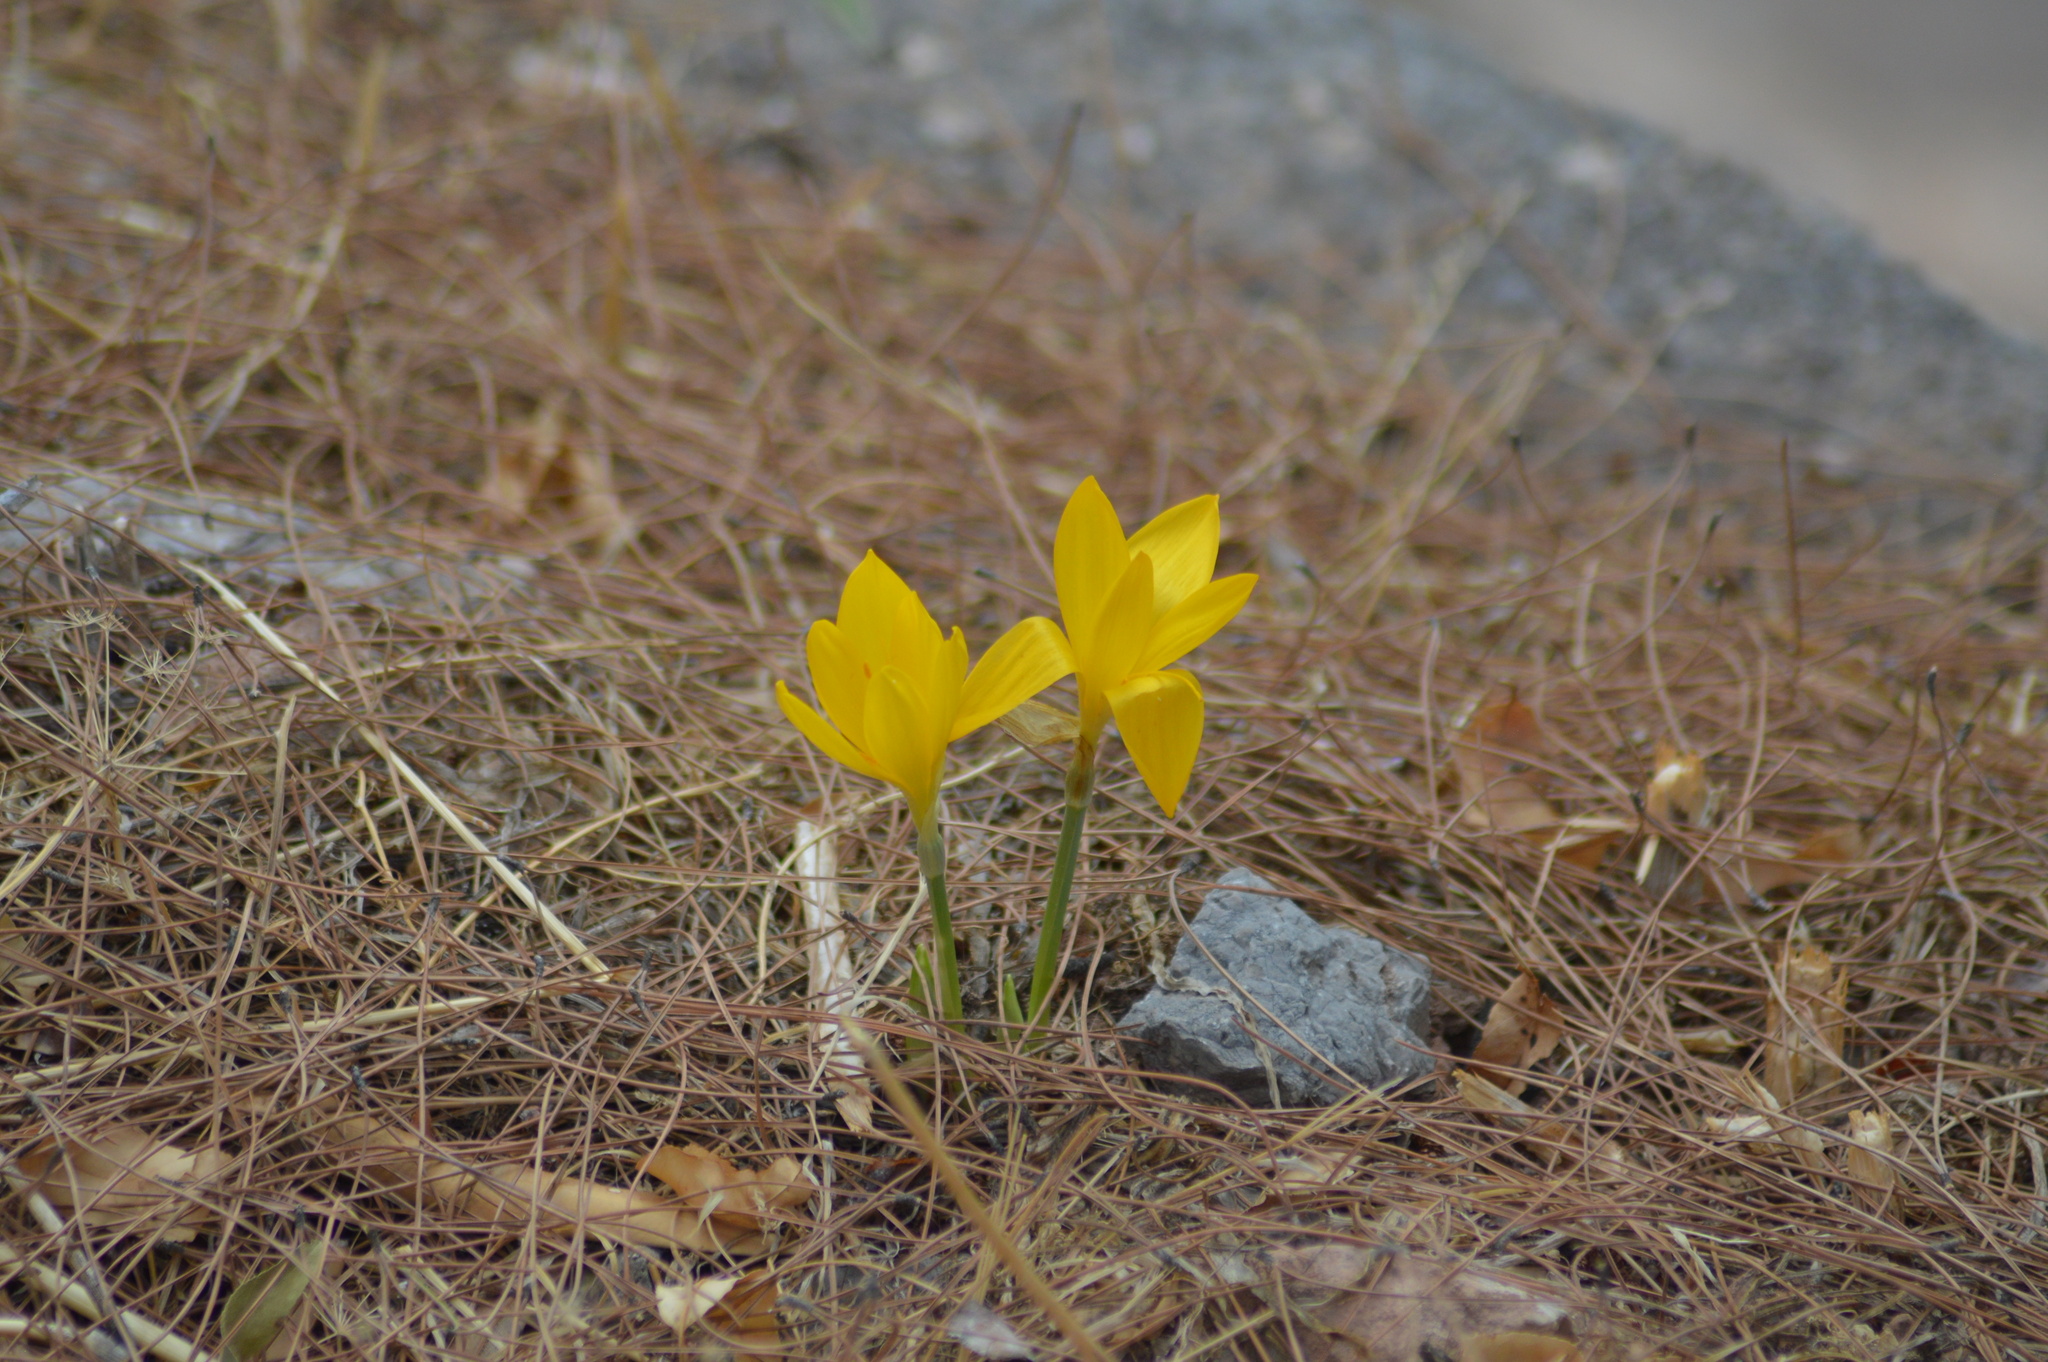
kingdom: Plantae
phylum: Tracheophyta
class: Liliopsida
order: Asparagales
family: Amaryllidaceae
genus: Sternbergia
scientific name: Sternbergia lutea
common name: Winter daffodil
